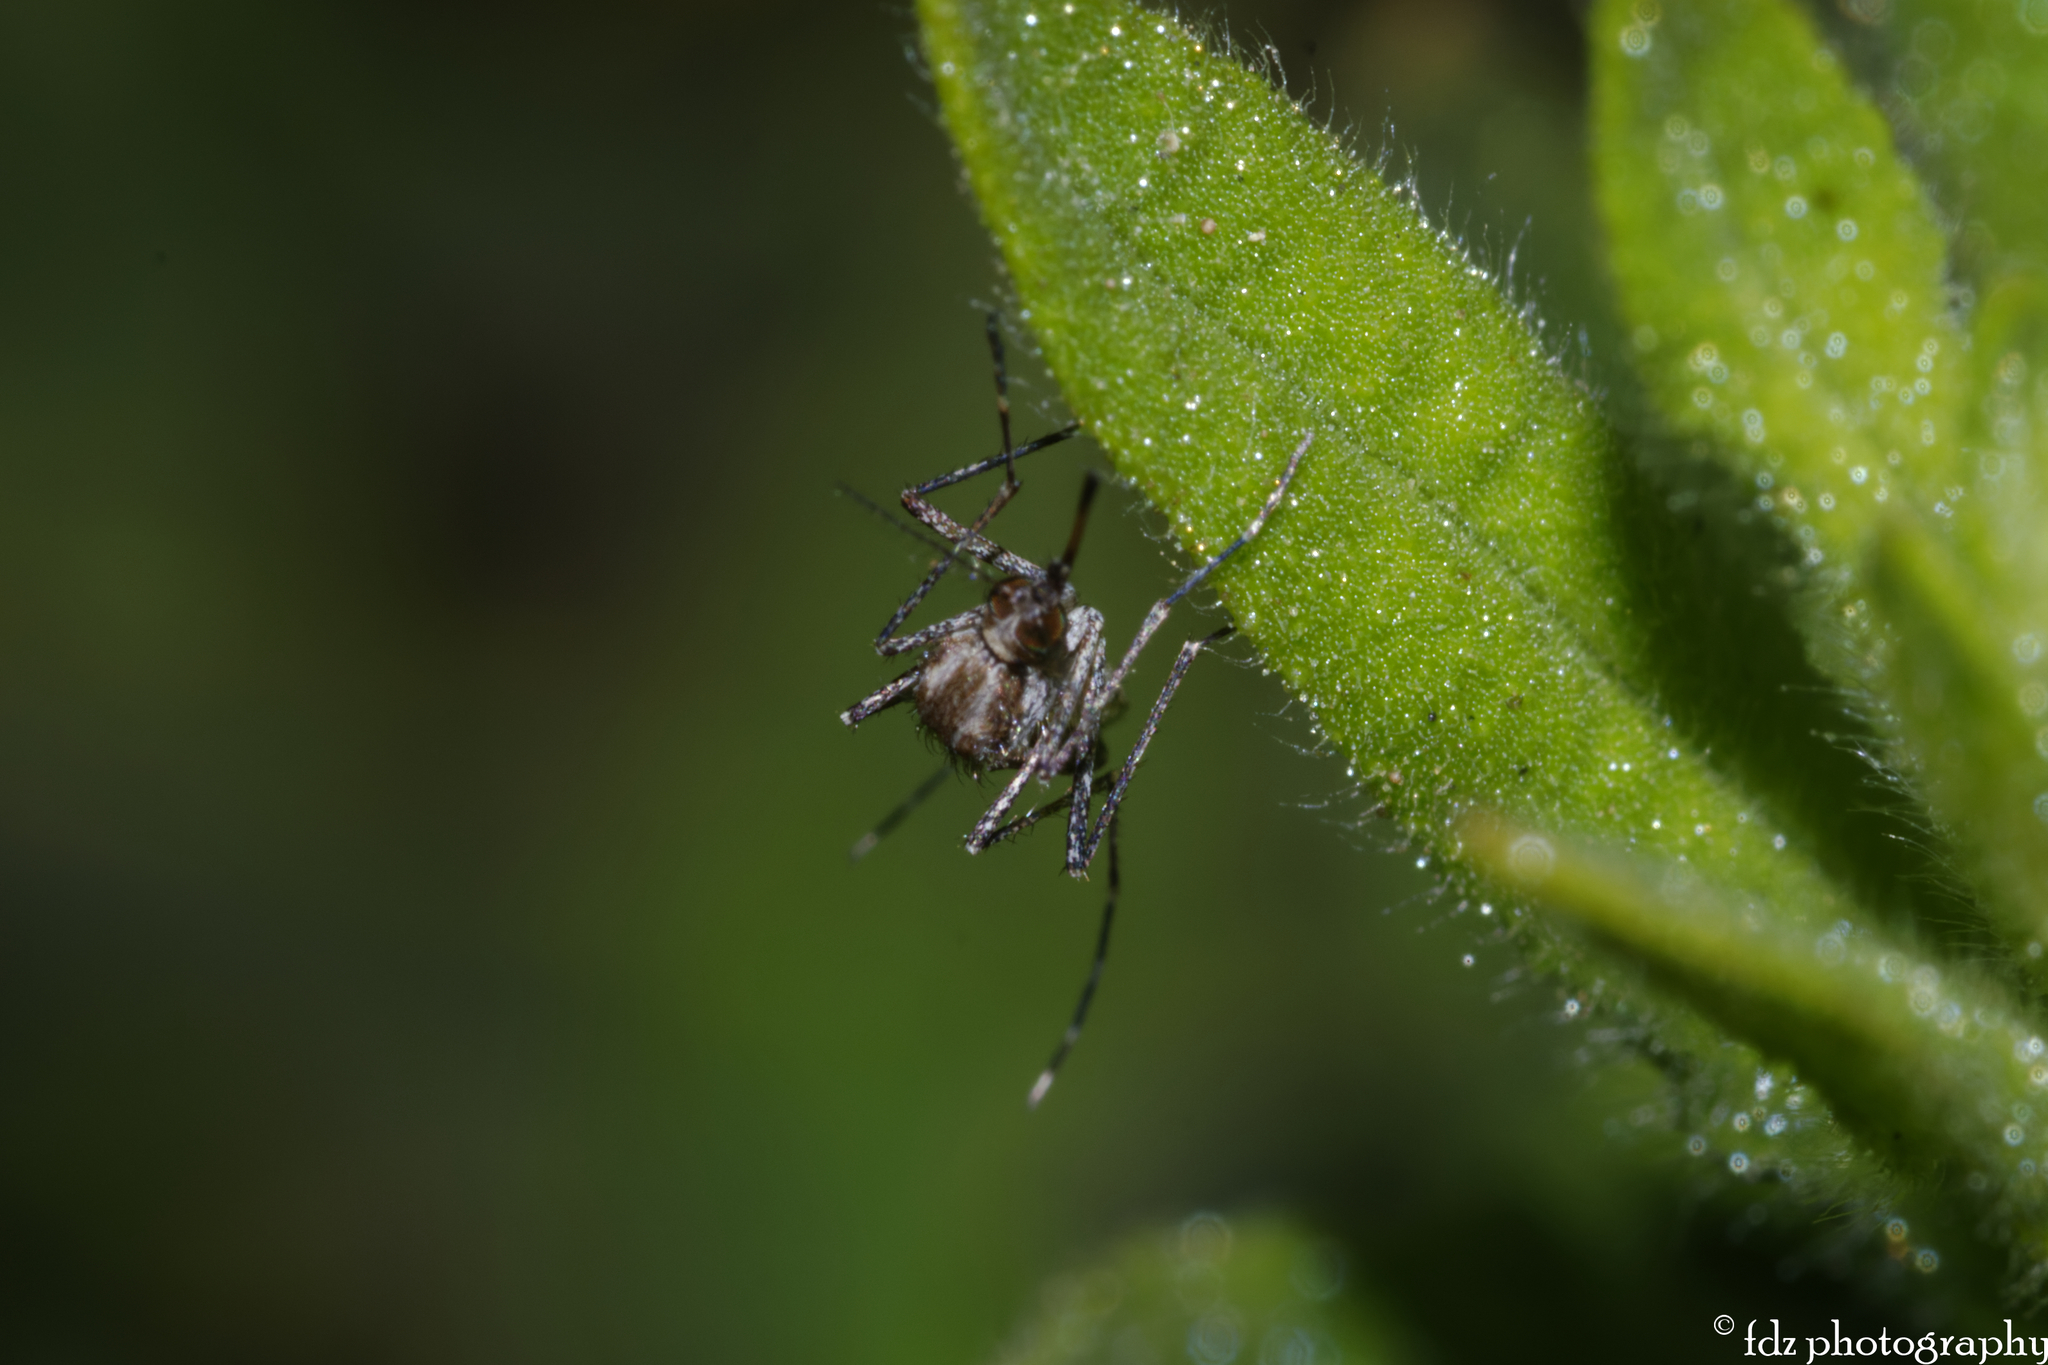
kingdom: Animalia
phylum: Arthropoda
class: Insecta
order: Diptera
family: Culicidae
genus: Aedes
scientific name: Aedes caspius
